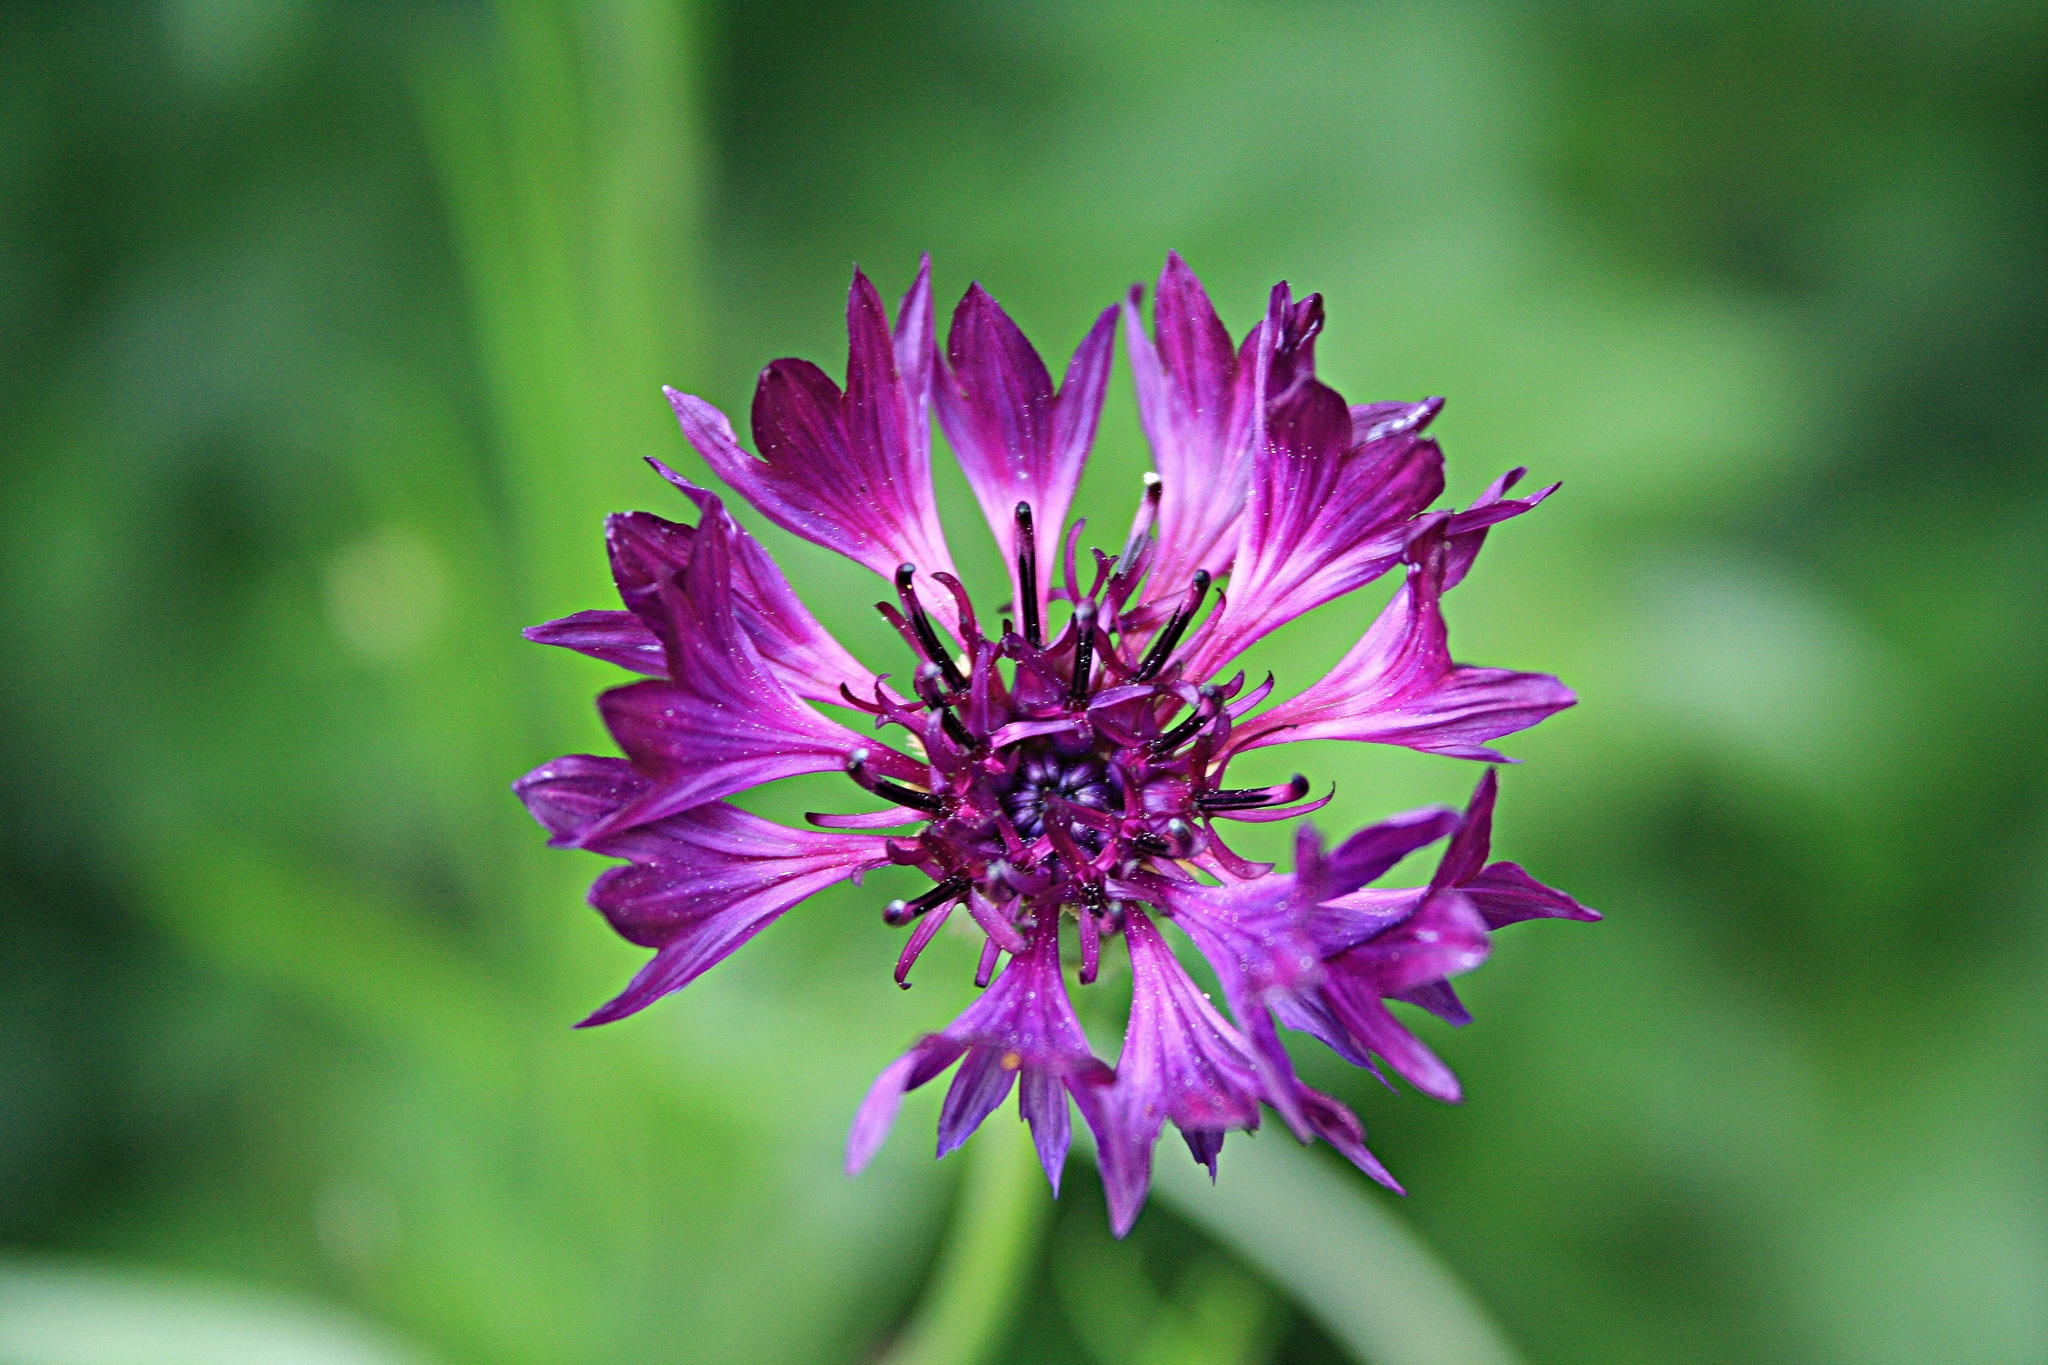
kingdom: Plantae
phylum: Tracheophyta
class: Magnoliopsida
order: Asterales
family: Asteraceae
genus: Centaurea
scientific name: Centaurea cyanus
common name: Cornflower
